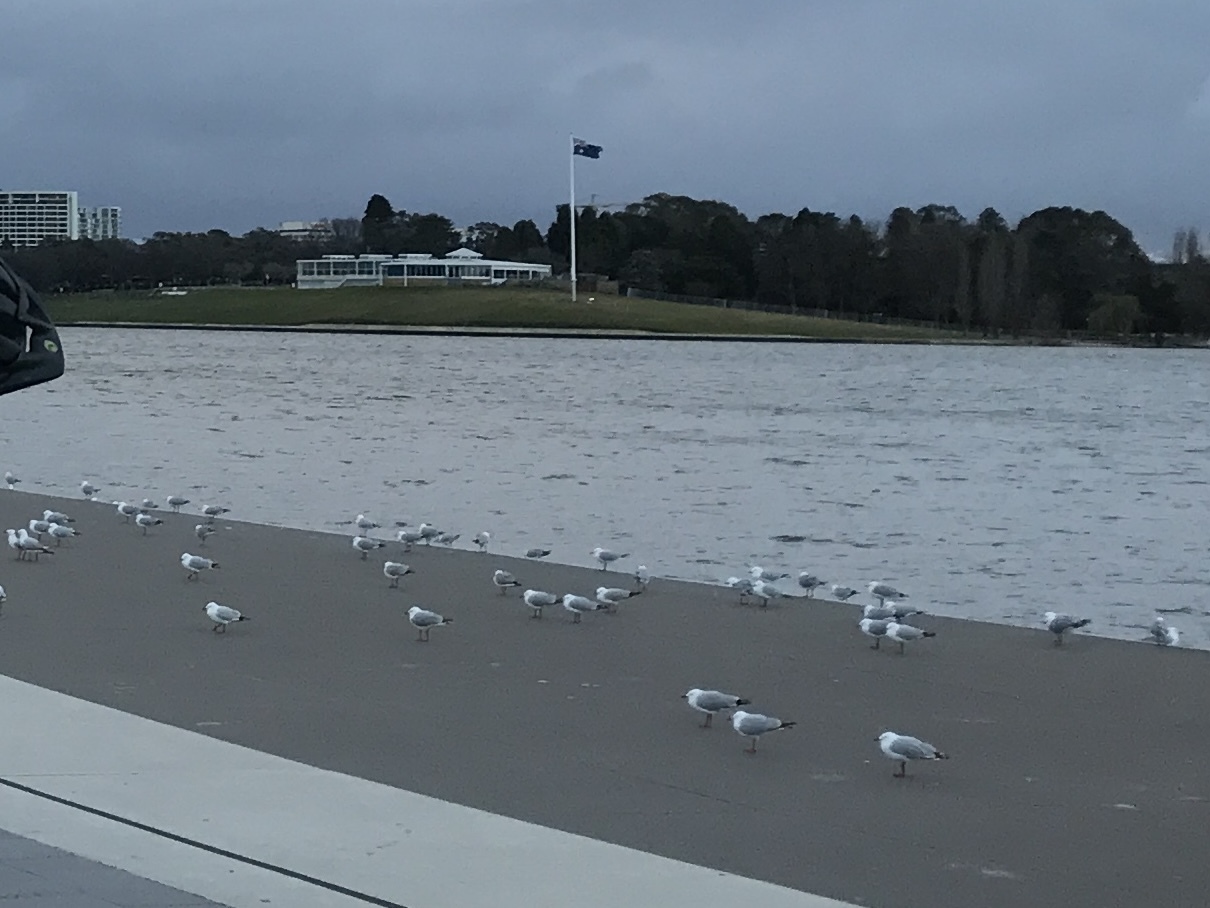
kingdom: Animalia
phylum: Chordata
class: Aves
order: Charadriiformes
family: Laridae
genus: Chroicocephalus
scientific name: Chroicocephalus novaehollandiae
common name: Silver gull
